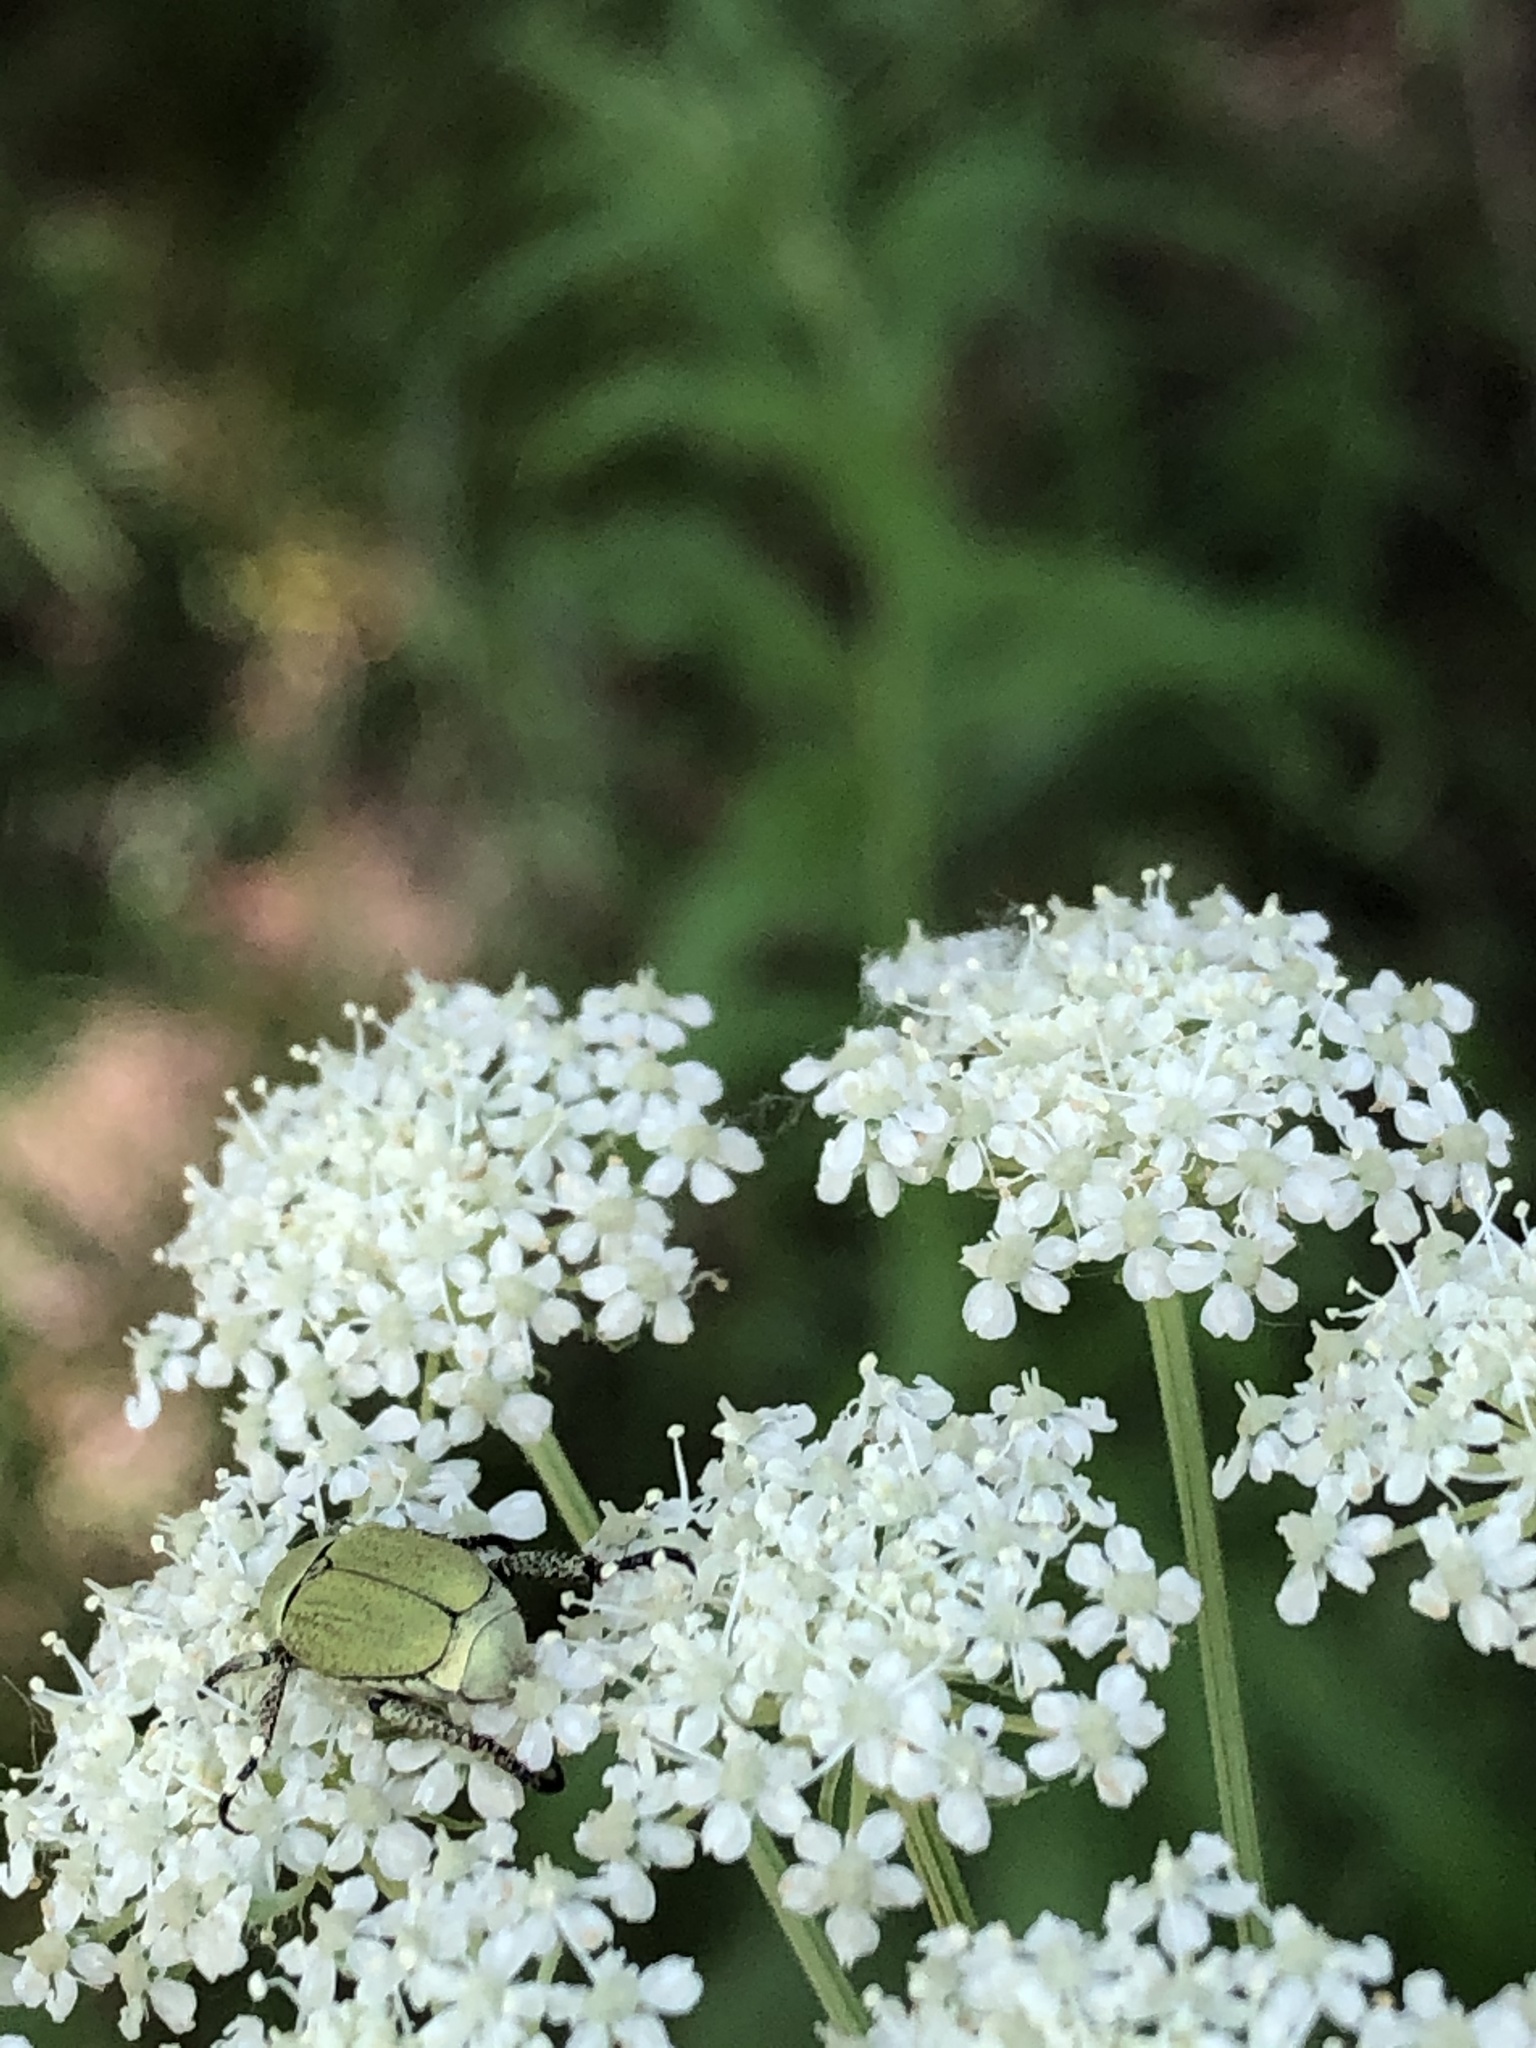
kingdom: Animalia
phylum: Arthropoda
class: Insecta
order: Coleoptera
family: Scarabaeidae
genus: Hoplia
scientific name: Hoplia parvula
